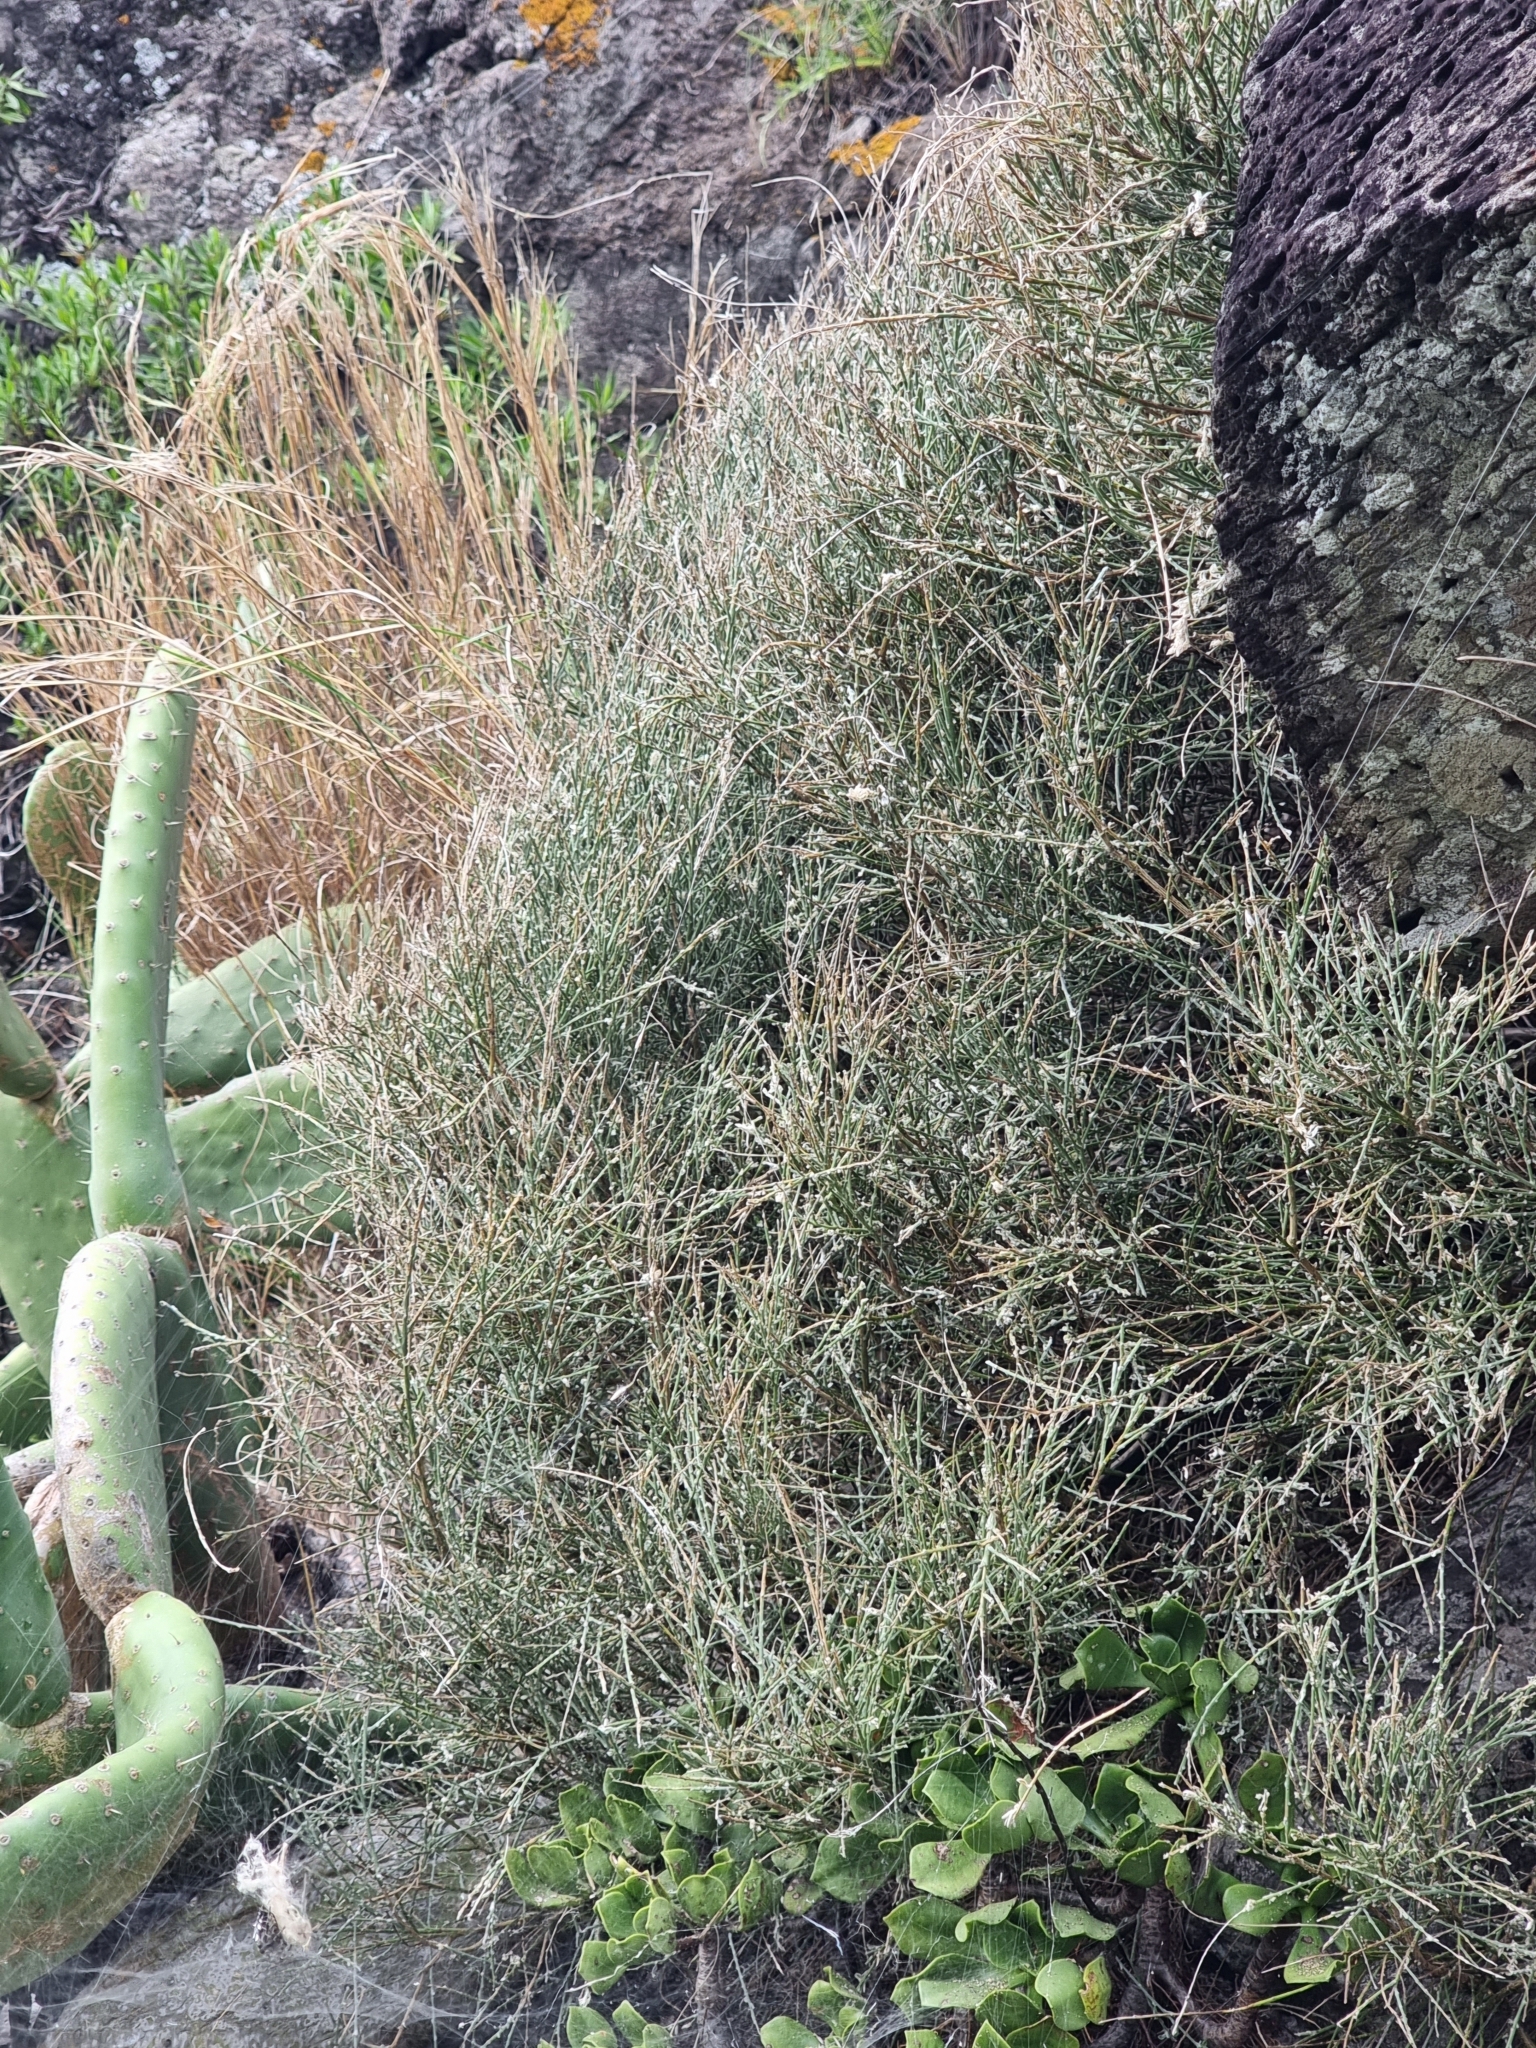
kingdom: Plantae
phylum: Tracheophyta
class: Magnoliopsida
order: Fabales
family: Fabaceae
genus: Genista
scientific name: Genista tenera
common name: Madeira broom
